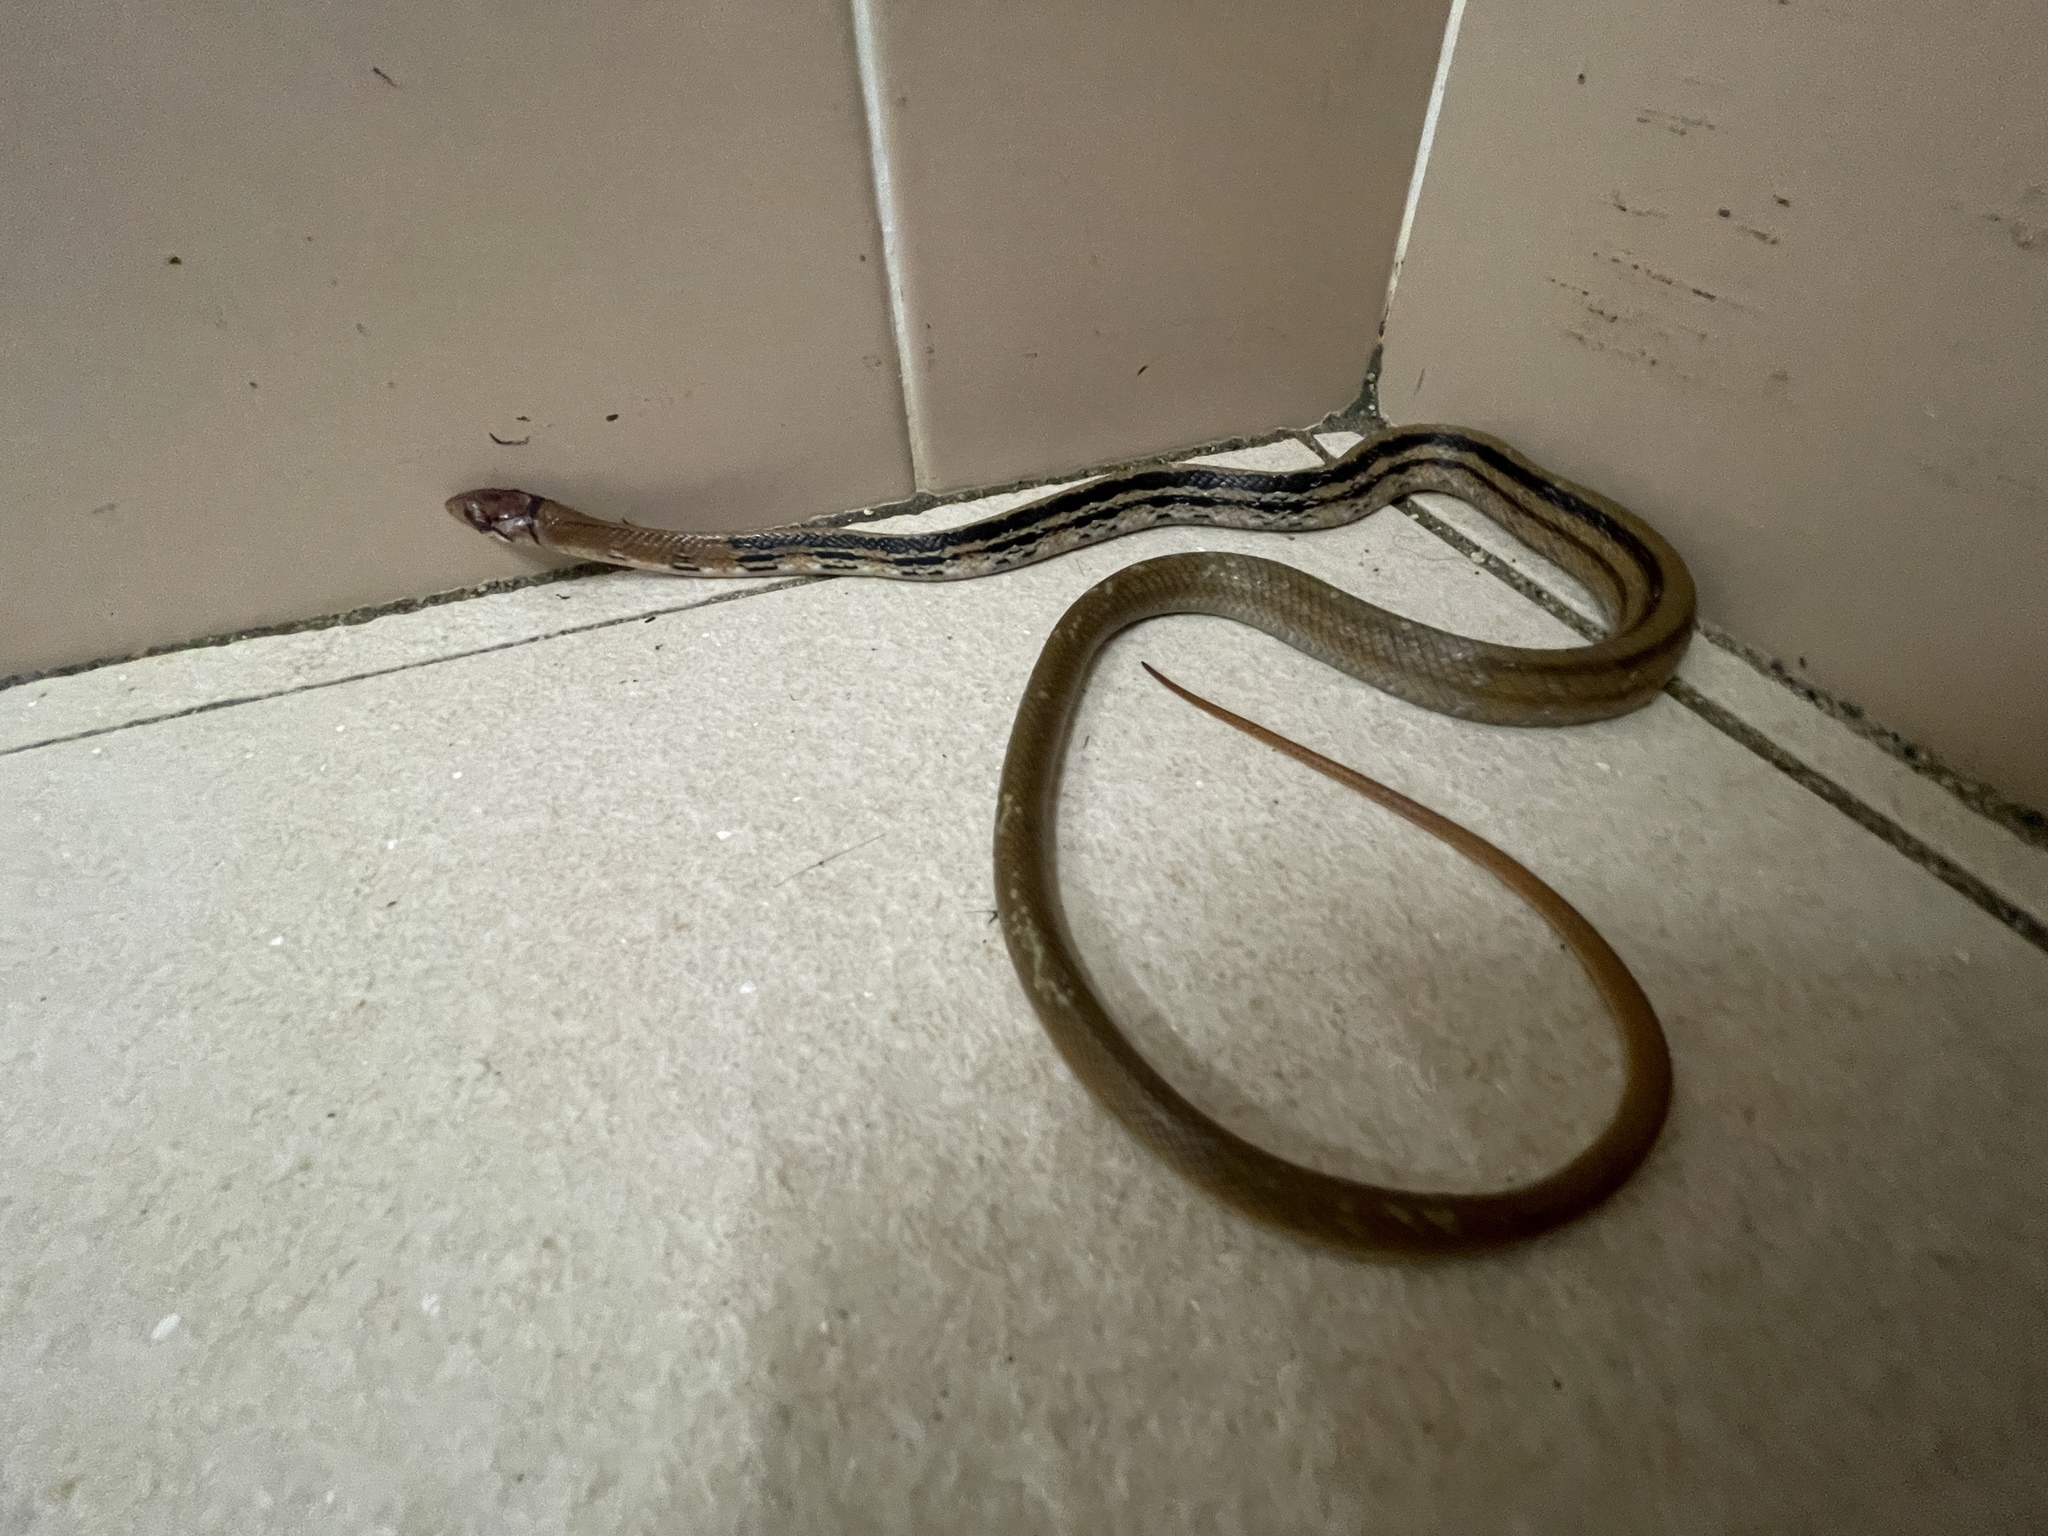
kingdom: Animalia
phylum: Chordata
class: Squamata
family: Colubridae
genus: Coelognathus
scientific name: Coelognathus radiatus
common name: Copperhead rat snake
